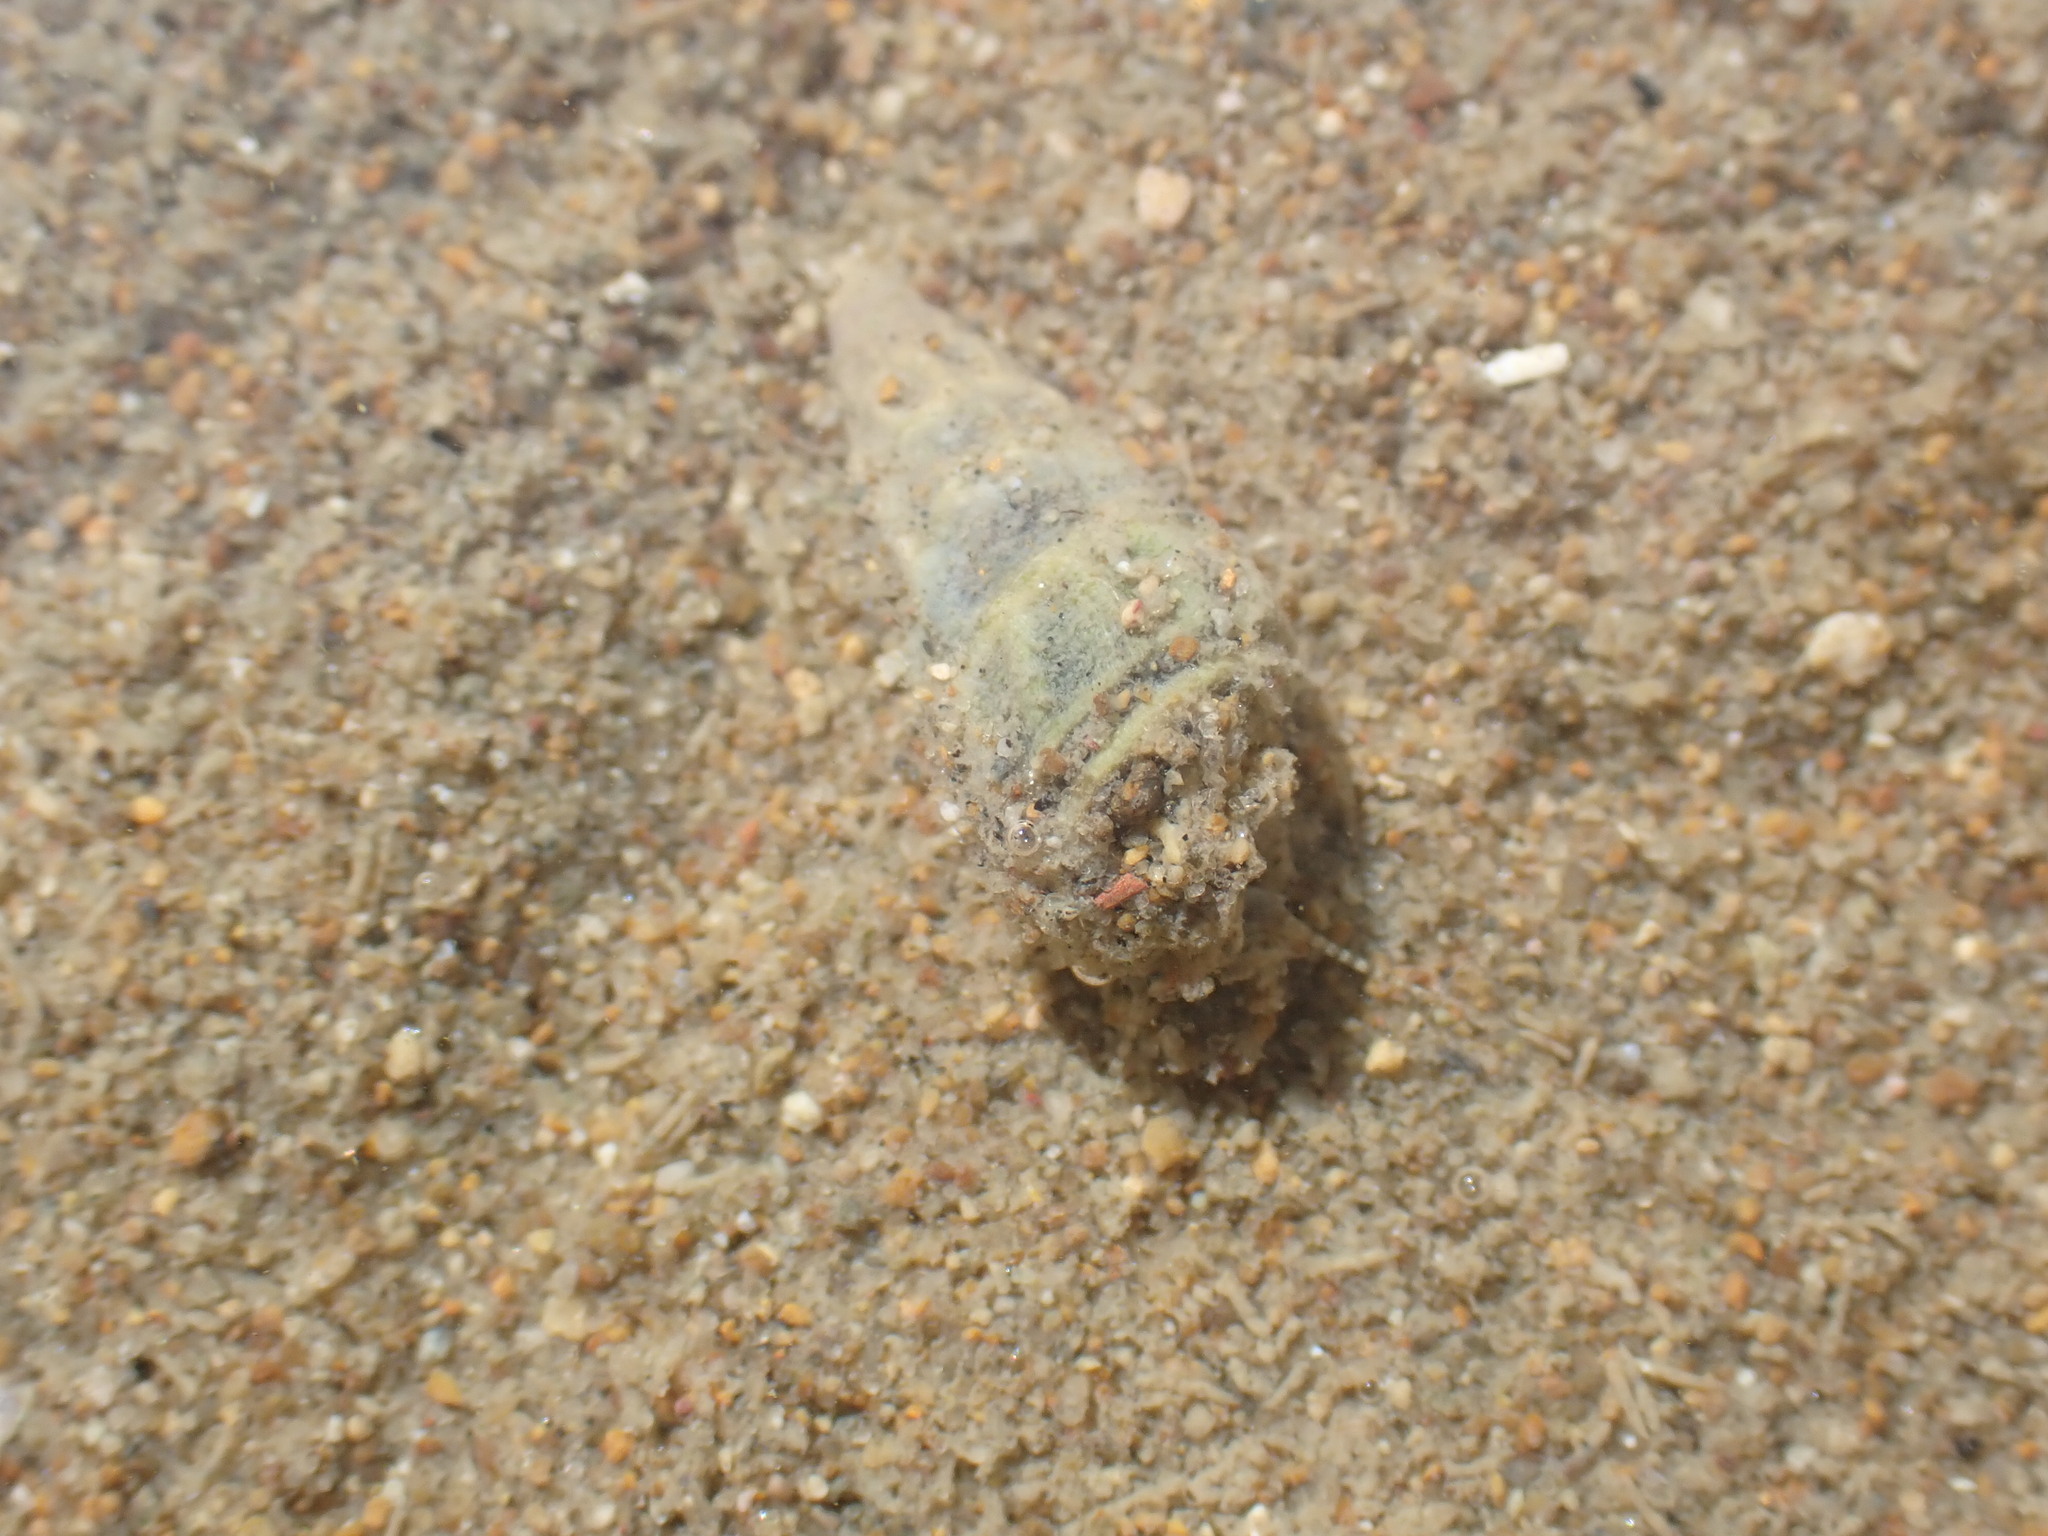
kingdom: Animalia
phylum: Mollusca
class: Gastropoda
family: Batillariidae
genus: Zeacumantus
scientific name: Zeacumantus lutulentus
